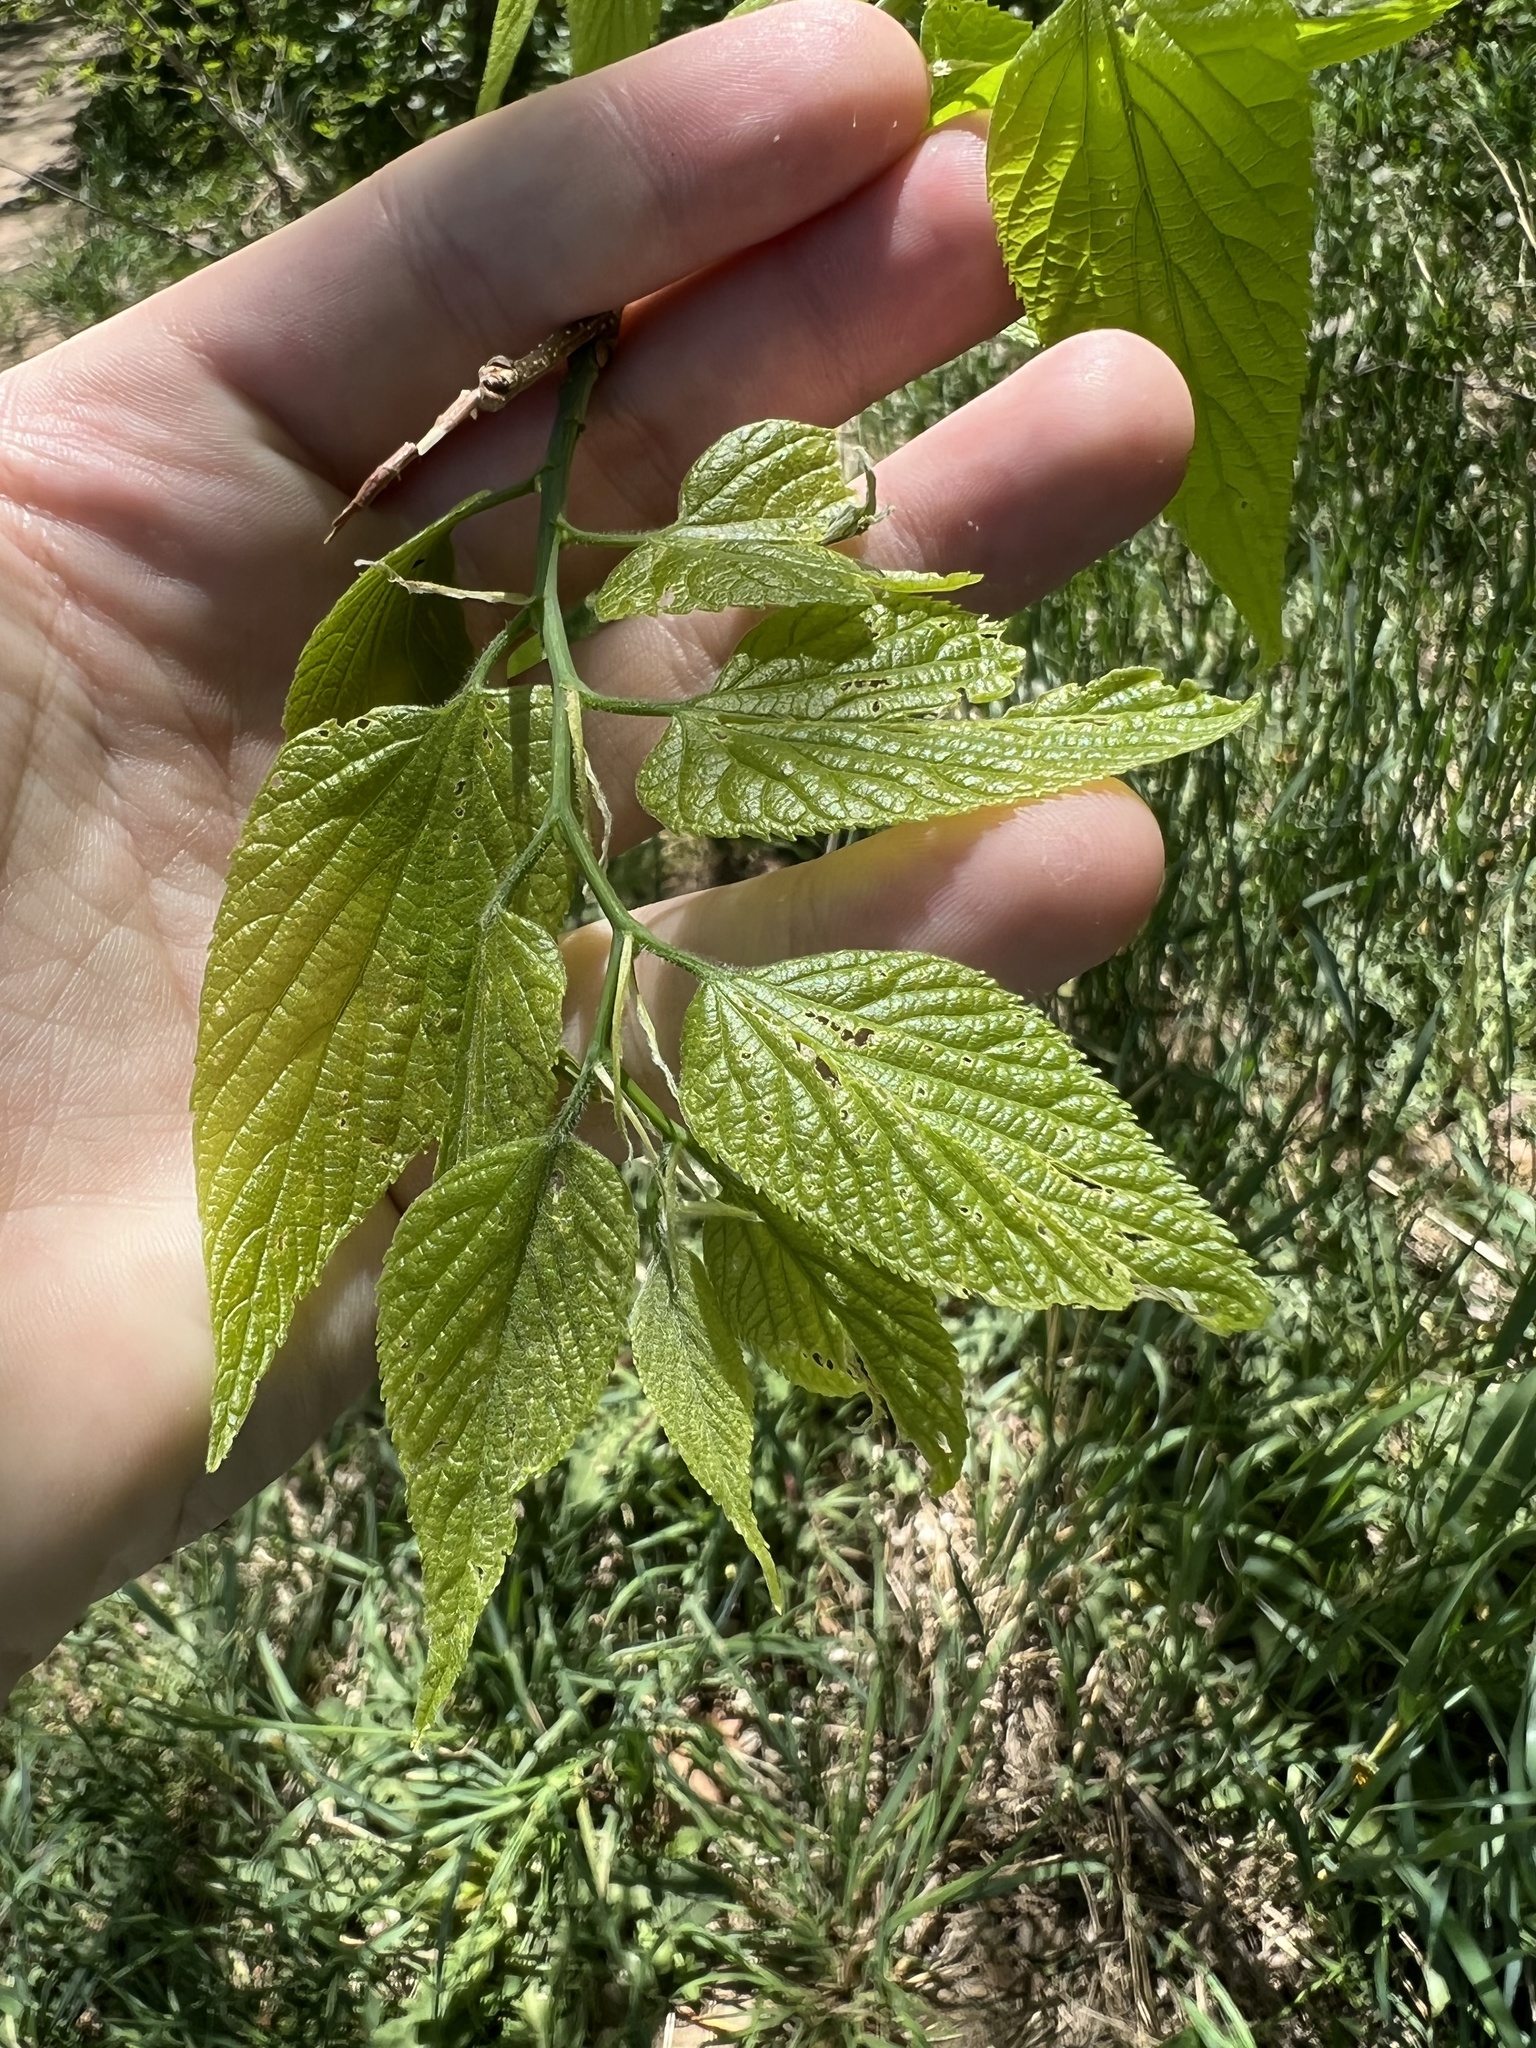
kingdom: Plantae
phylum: Tracheophyta
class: Magnoliopsida
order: Rosales
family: Cannabaceae
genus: Celtis
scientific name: Celtis occidentalis
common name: Common hackberry
